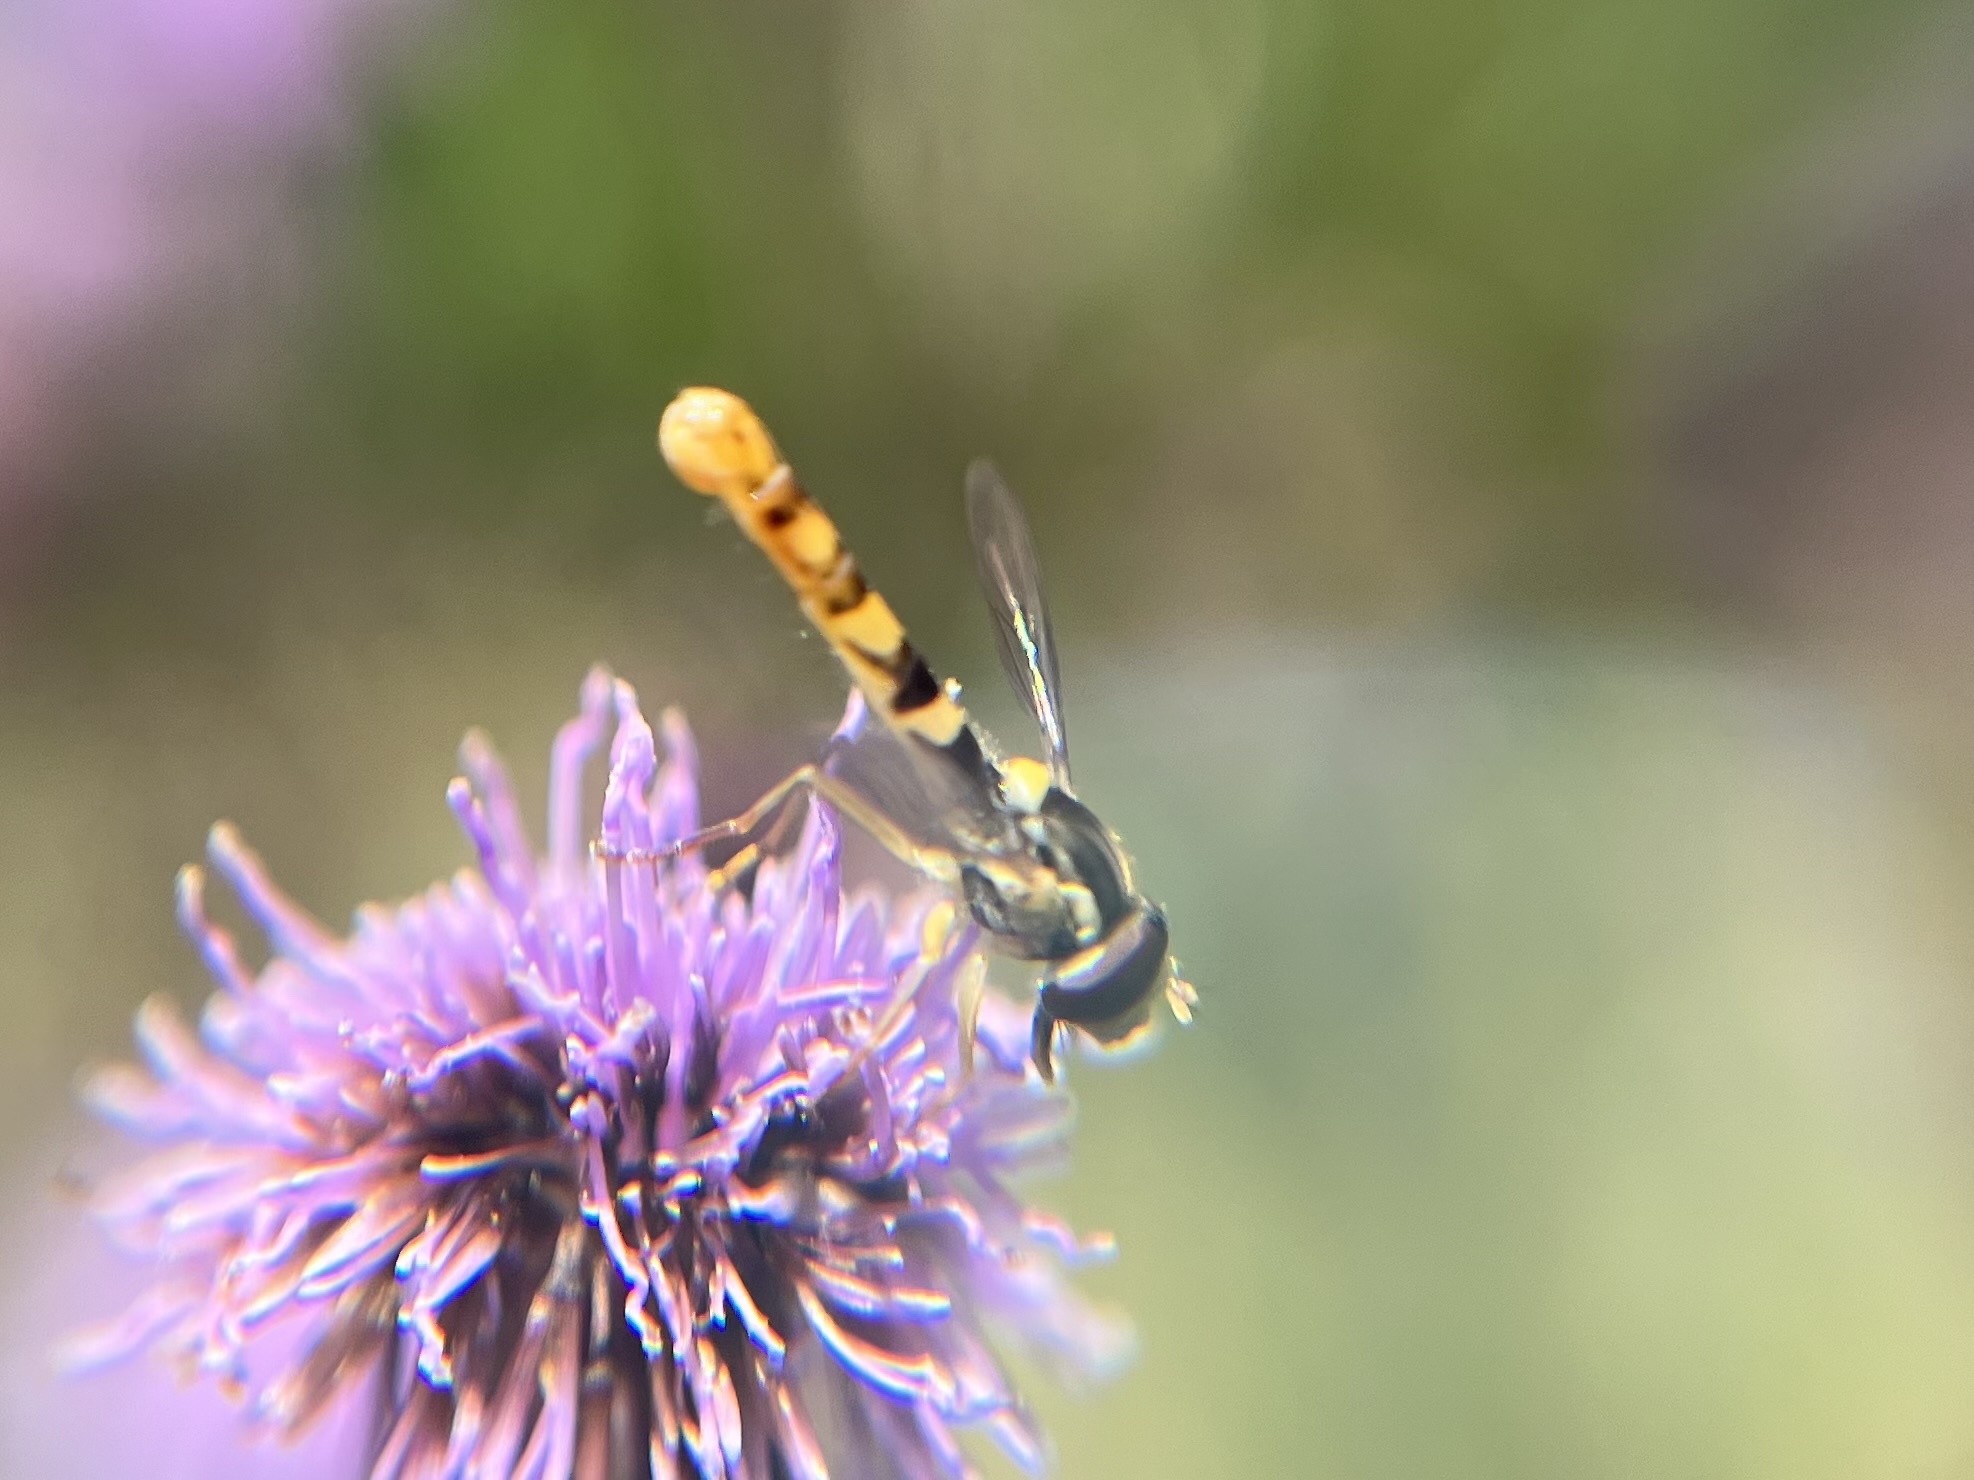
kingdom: Animalia
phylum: Arthropoda
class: Insecta
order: Diptera
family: Syrphidae
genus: Sphaerophoria
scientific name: Sphaerophoria scripta
